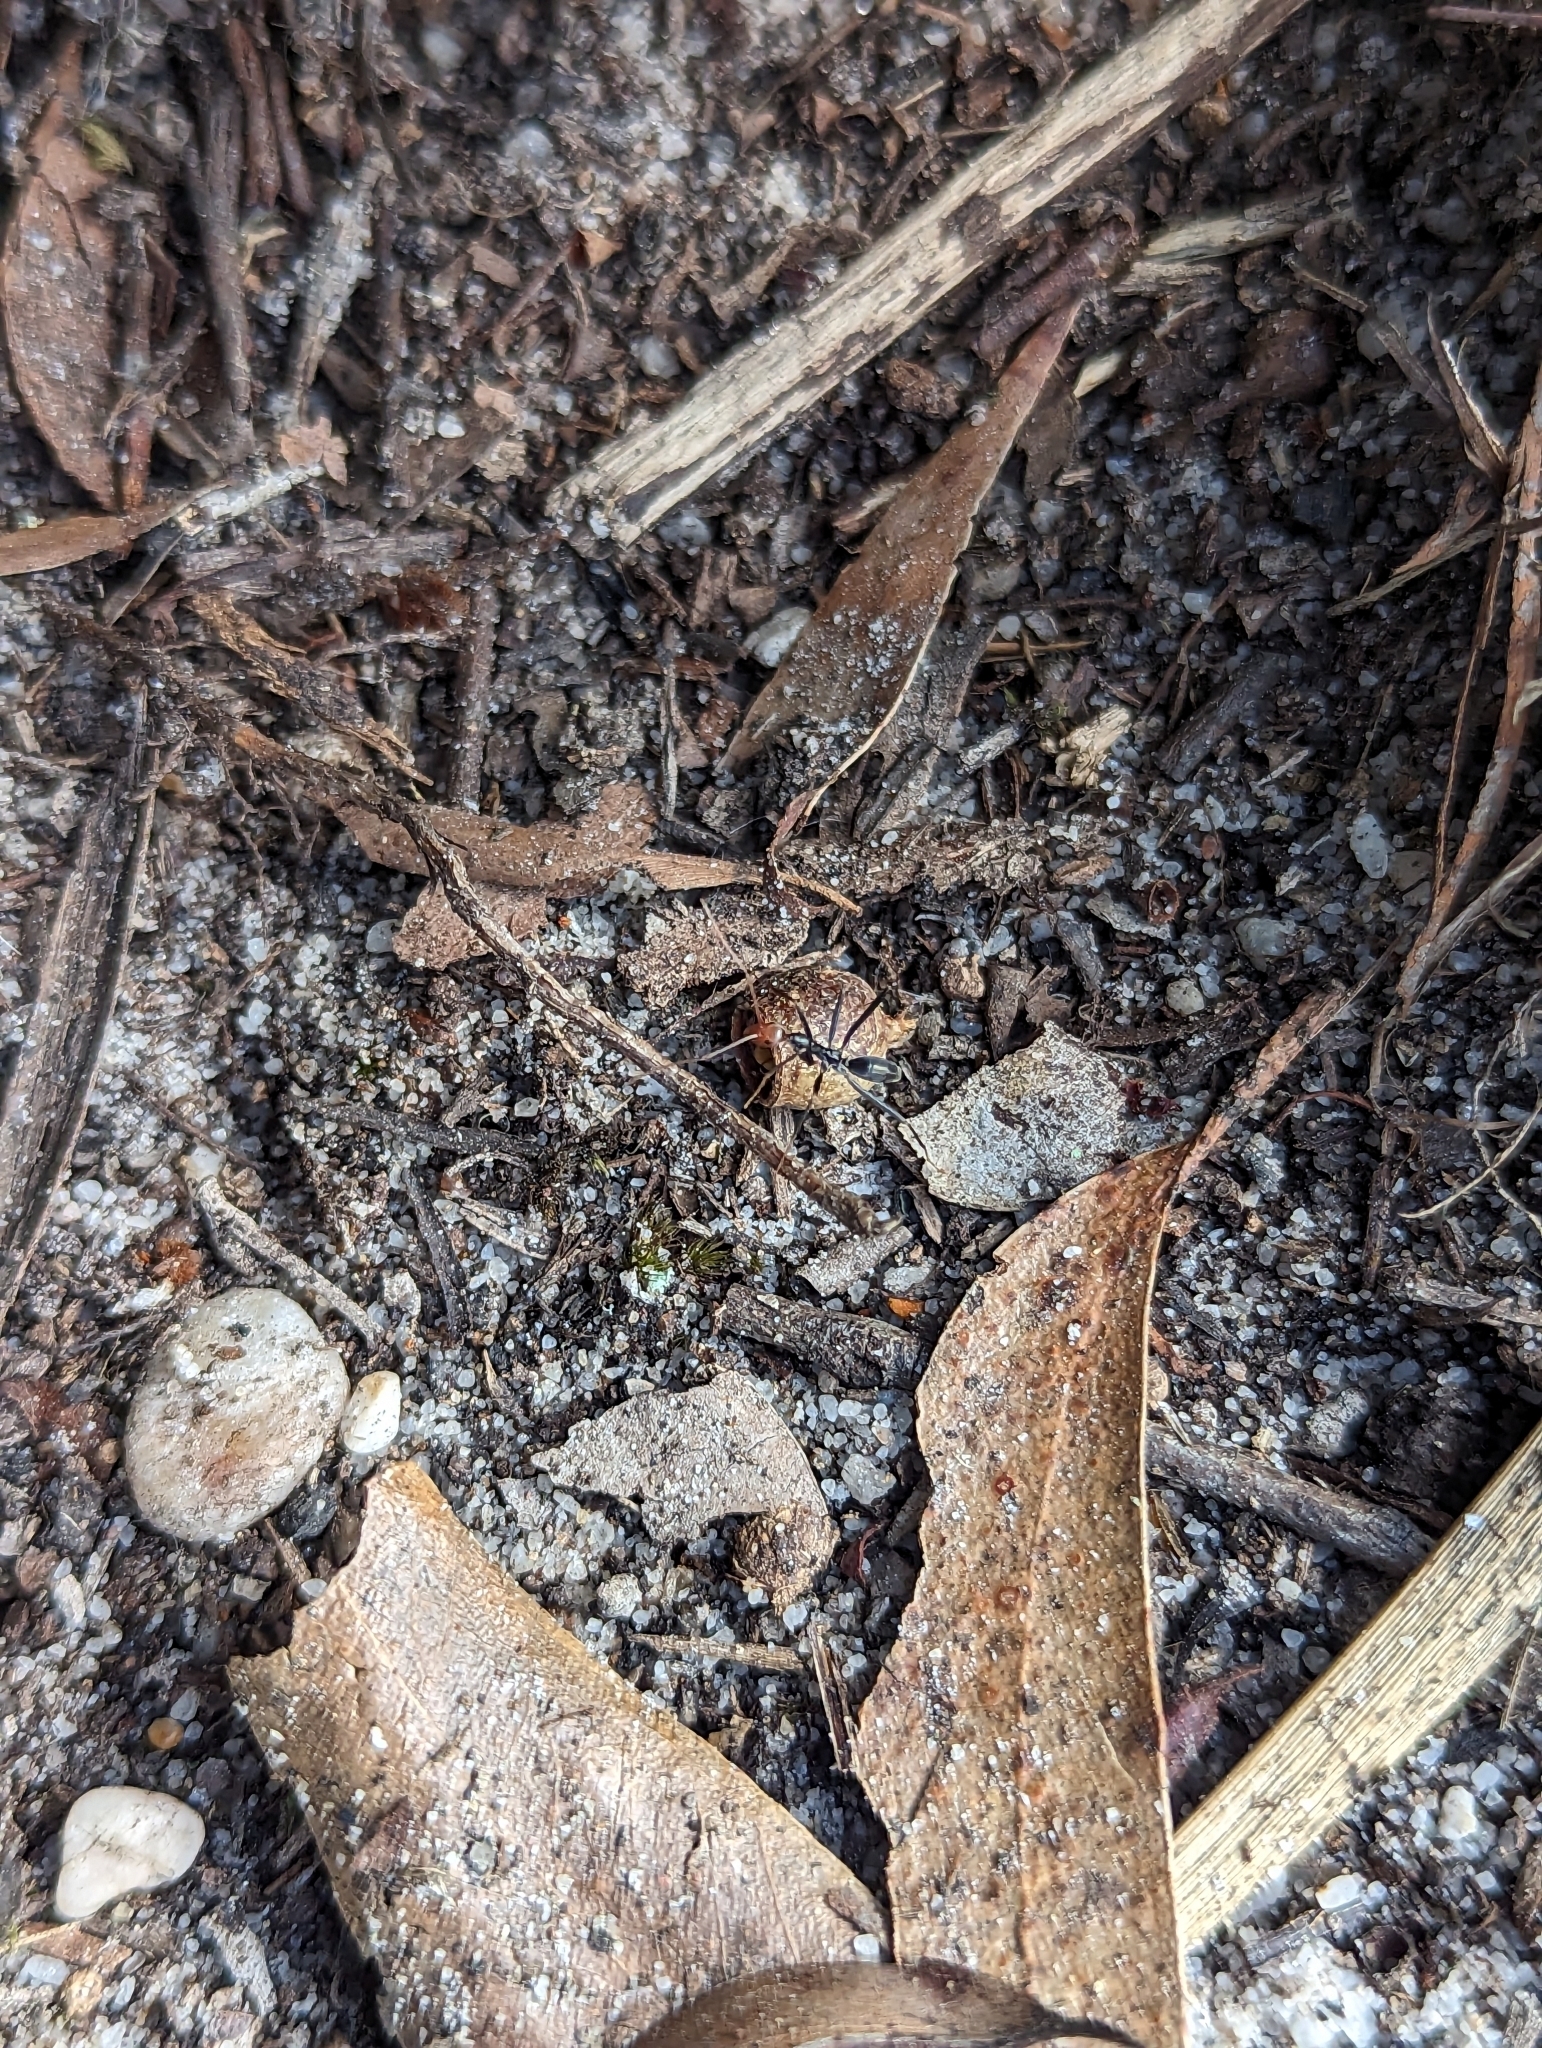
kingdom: Animalia
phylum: Arthropoda
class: Insecta
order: Hymenoptera
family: Formicidae
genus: Leptomyrmex
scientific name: Leptomyrmex erythrocephalus
